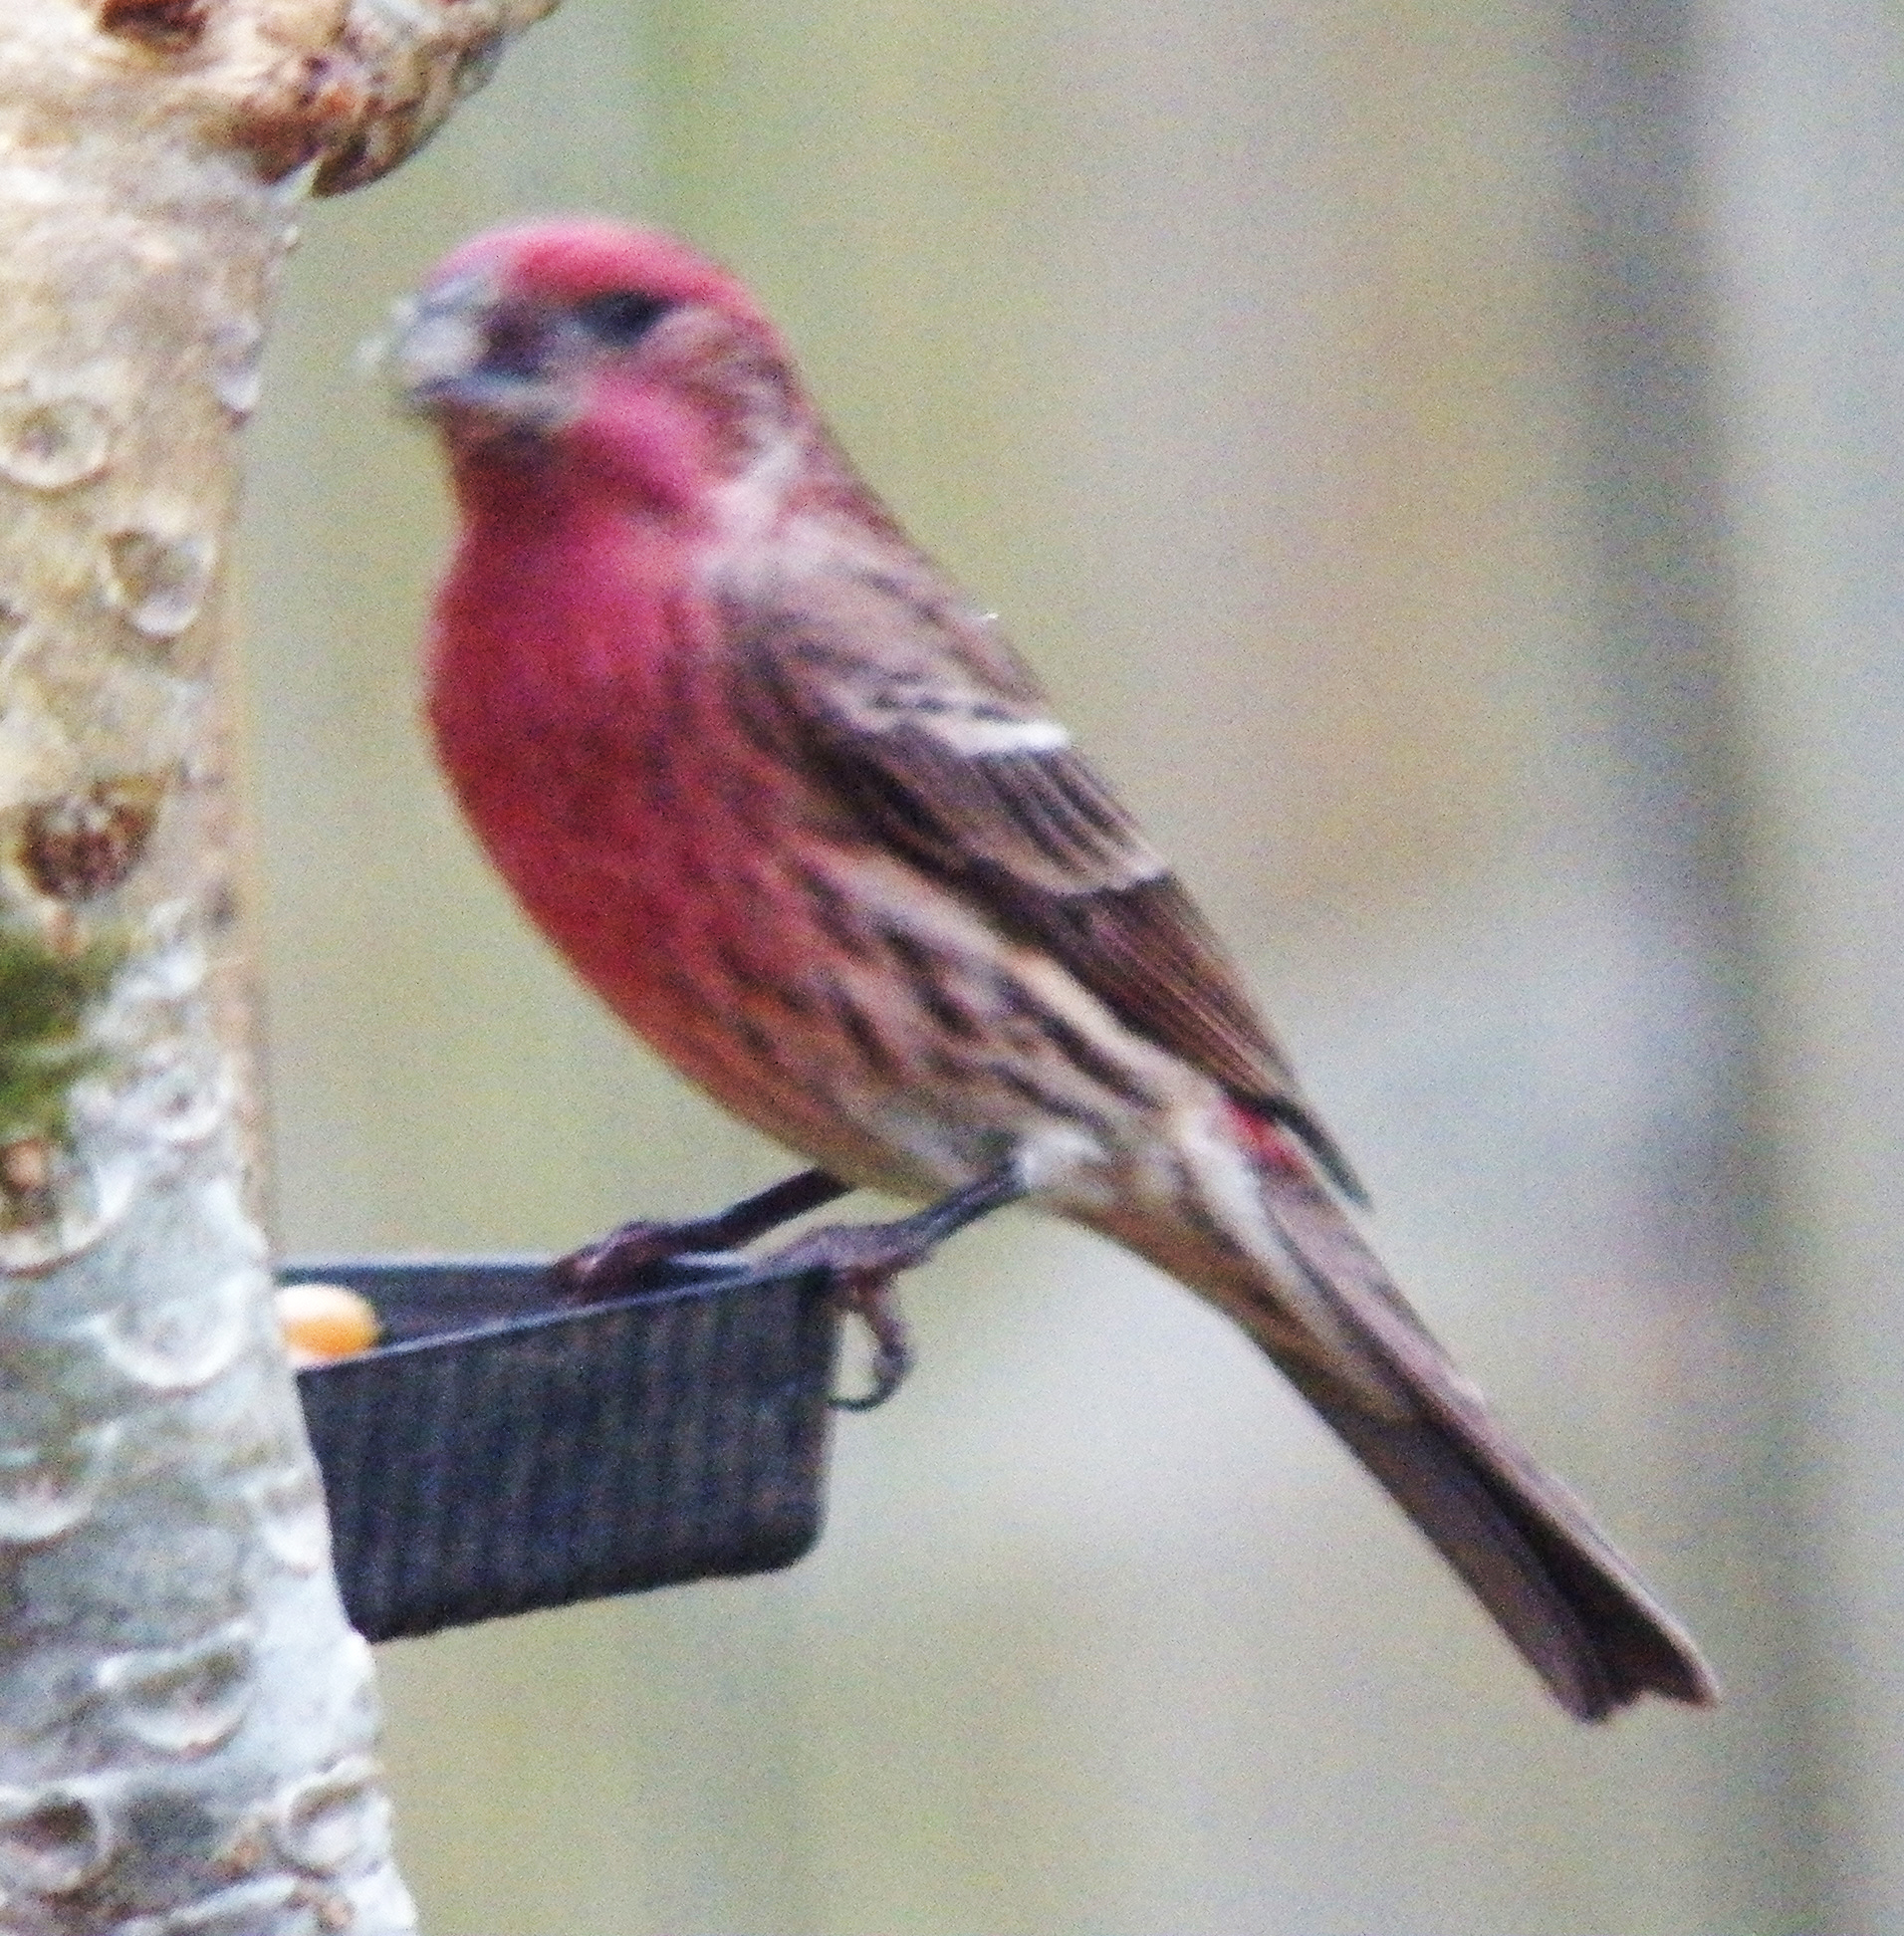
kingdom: Animalia
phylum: Chordata
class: Aves
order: Passeriformes
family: Fringillidae
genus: Haemorhous
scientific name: Haemorhous mexicanus
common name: House finch
